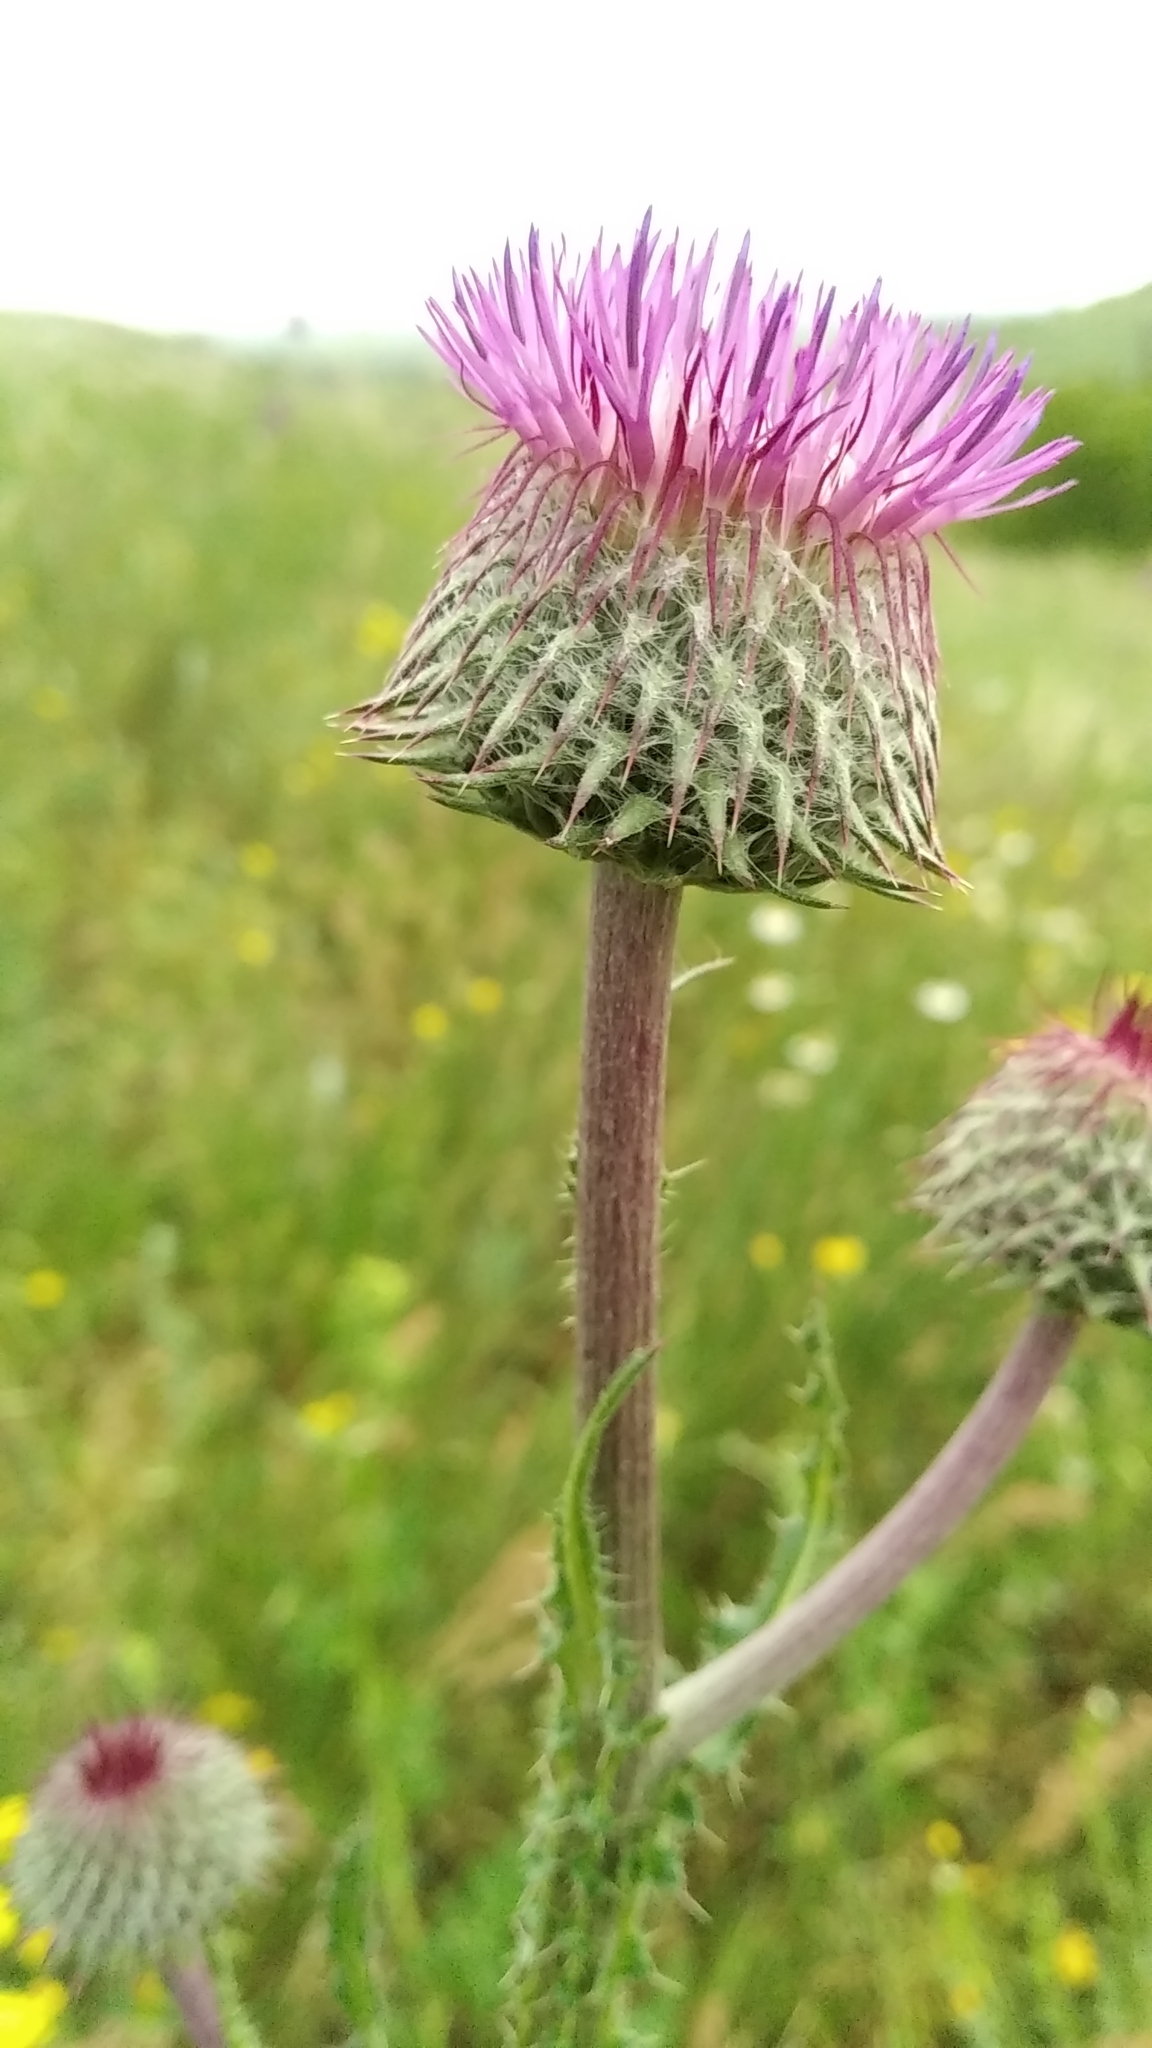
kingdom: Plantae
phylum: Tracheophyta
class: Magnoliopsida
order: Asterales
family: Asteraceae
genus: Carduus
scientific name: Carduus uncinatus
